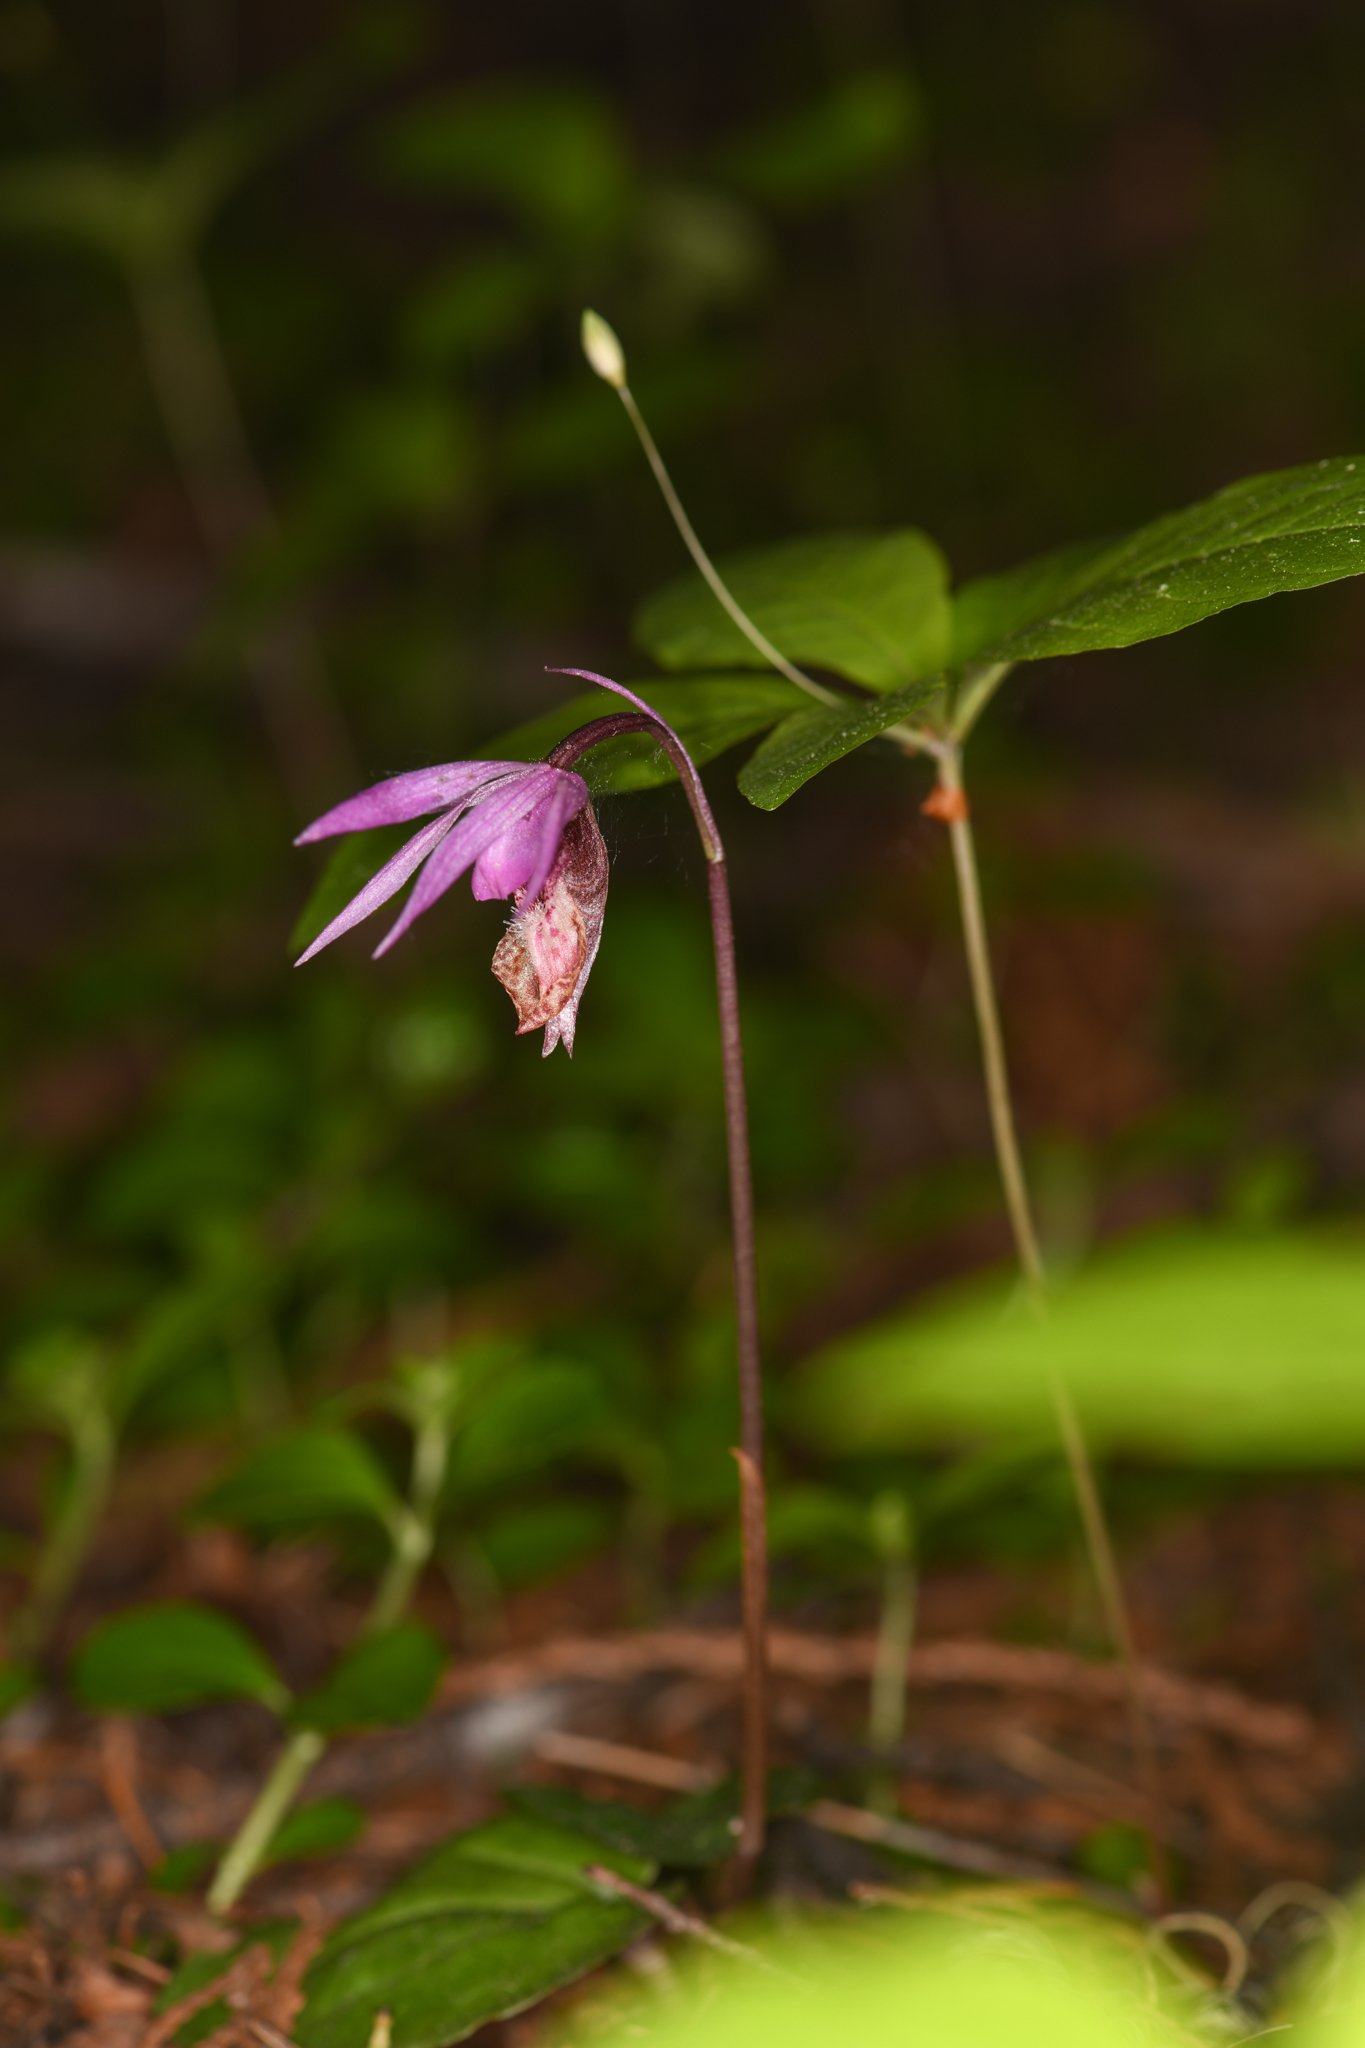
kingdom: Plantae
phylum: Tracheophyta
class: Liliopsida
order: Asparagales
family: Orchidaceae
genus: Calypso
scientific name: Calypso bulbosa
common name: Calypso
